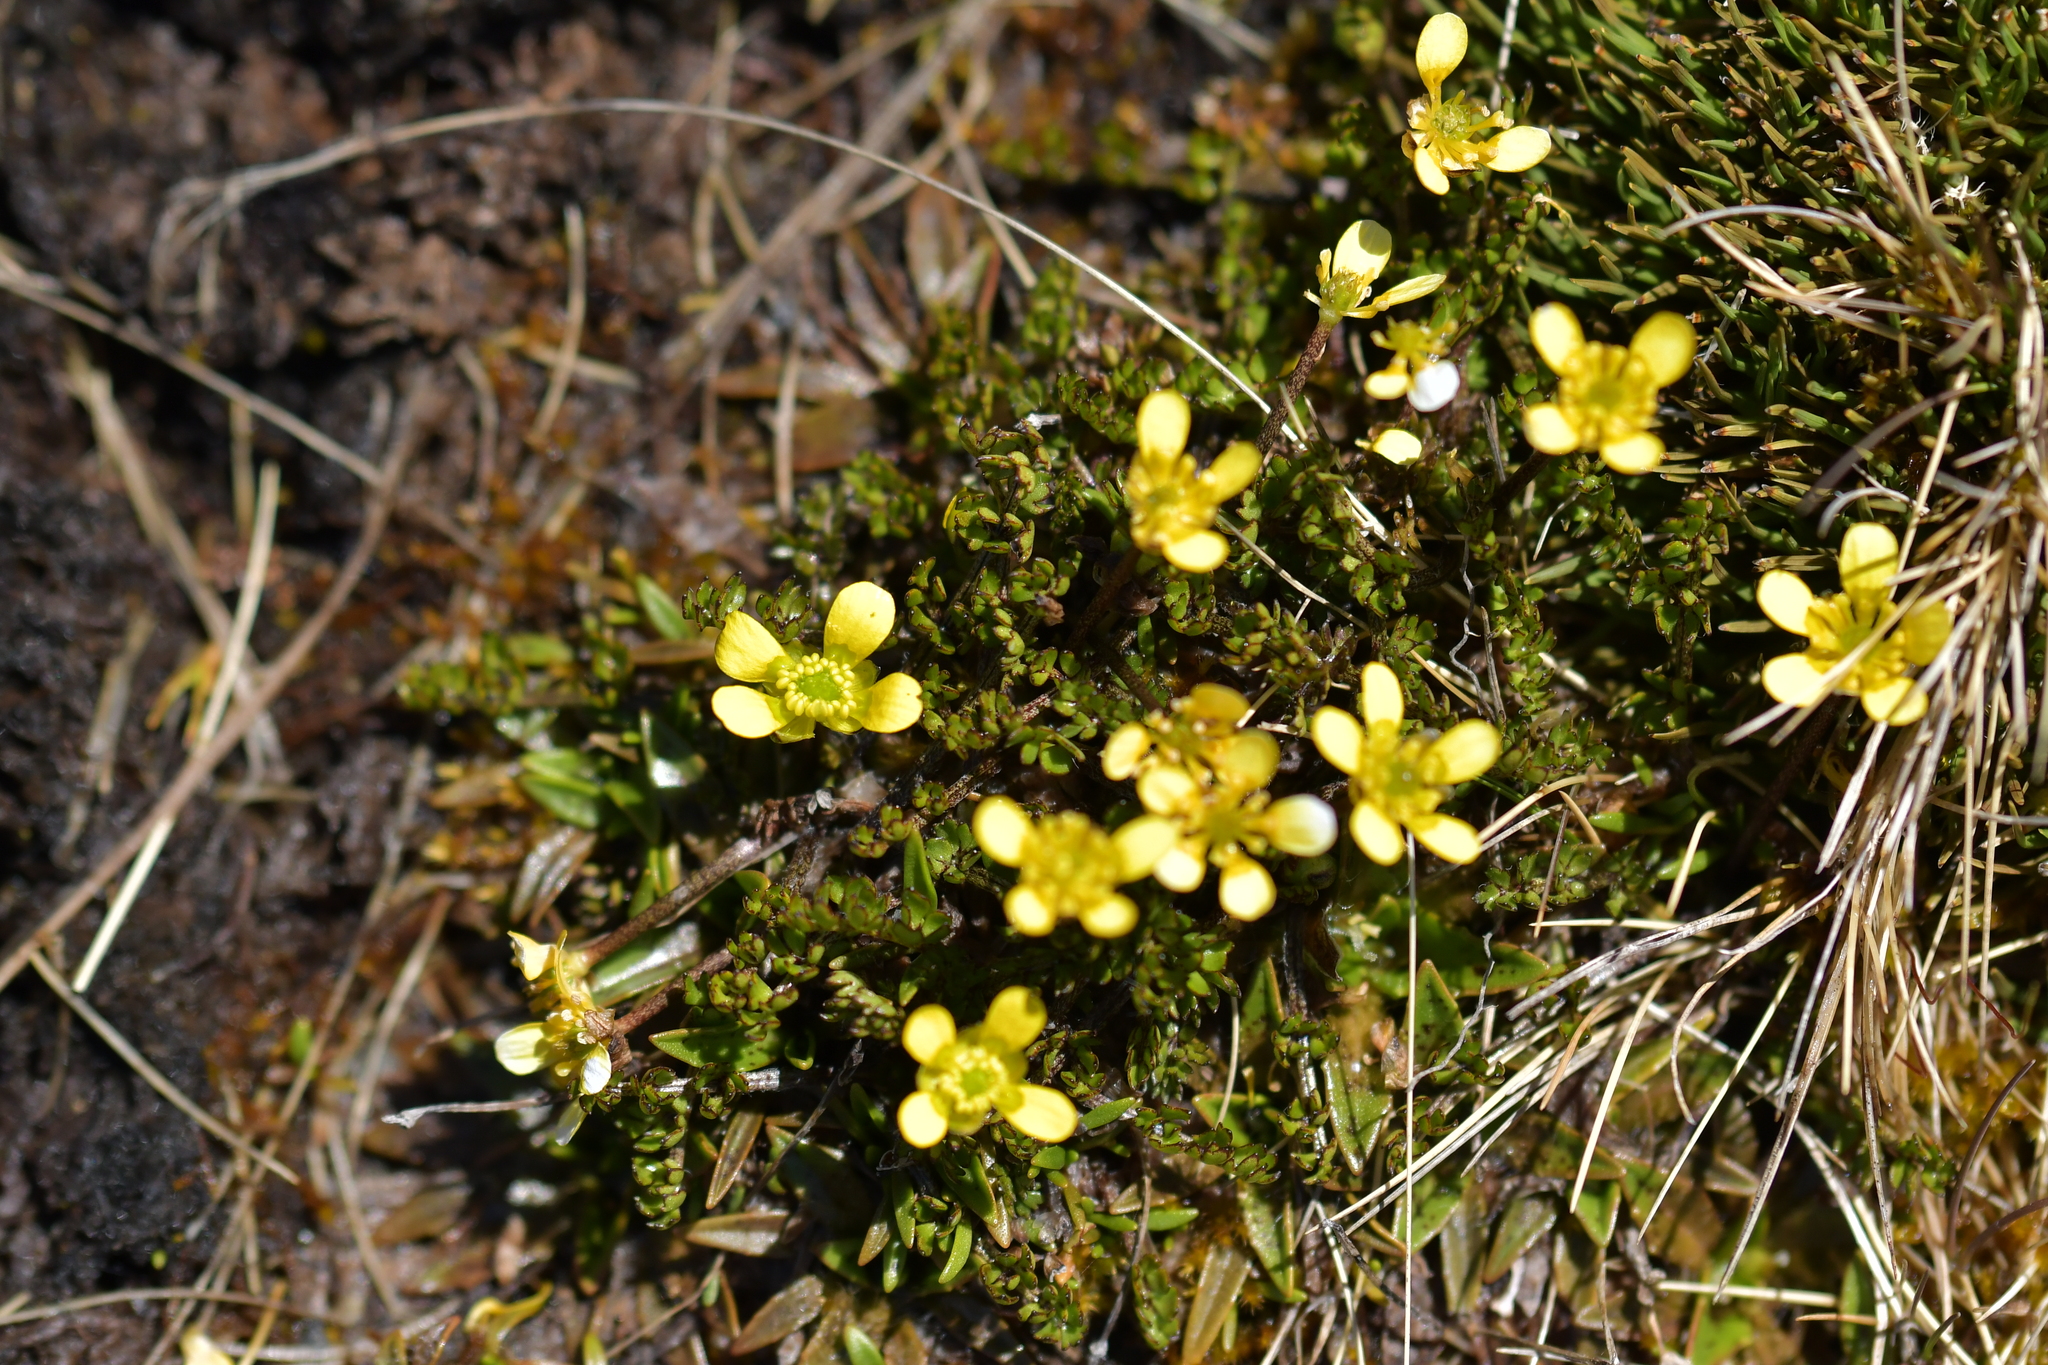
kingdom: Plantae
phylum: Tracheophyta
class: Magnoliopsida
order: Ranunculales
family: Ranunculaceae
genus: Ranunculus
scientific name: Ranunculus gracilipes
